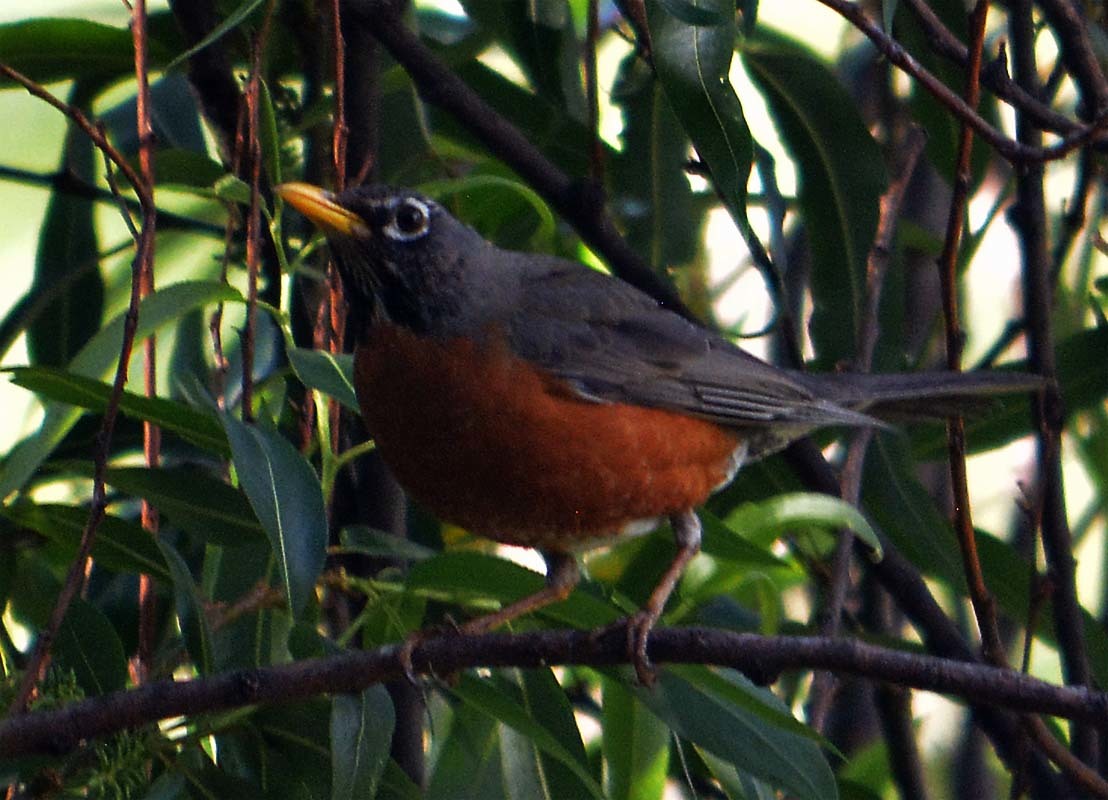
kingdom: Animalia
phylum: Chordata
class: Aves
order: Passeriformes
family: Turdidae
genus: Turdus
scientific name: Turdus migratorius
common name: American robin
